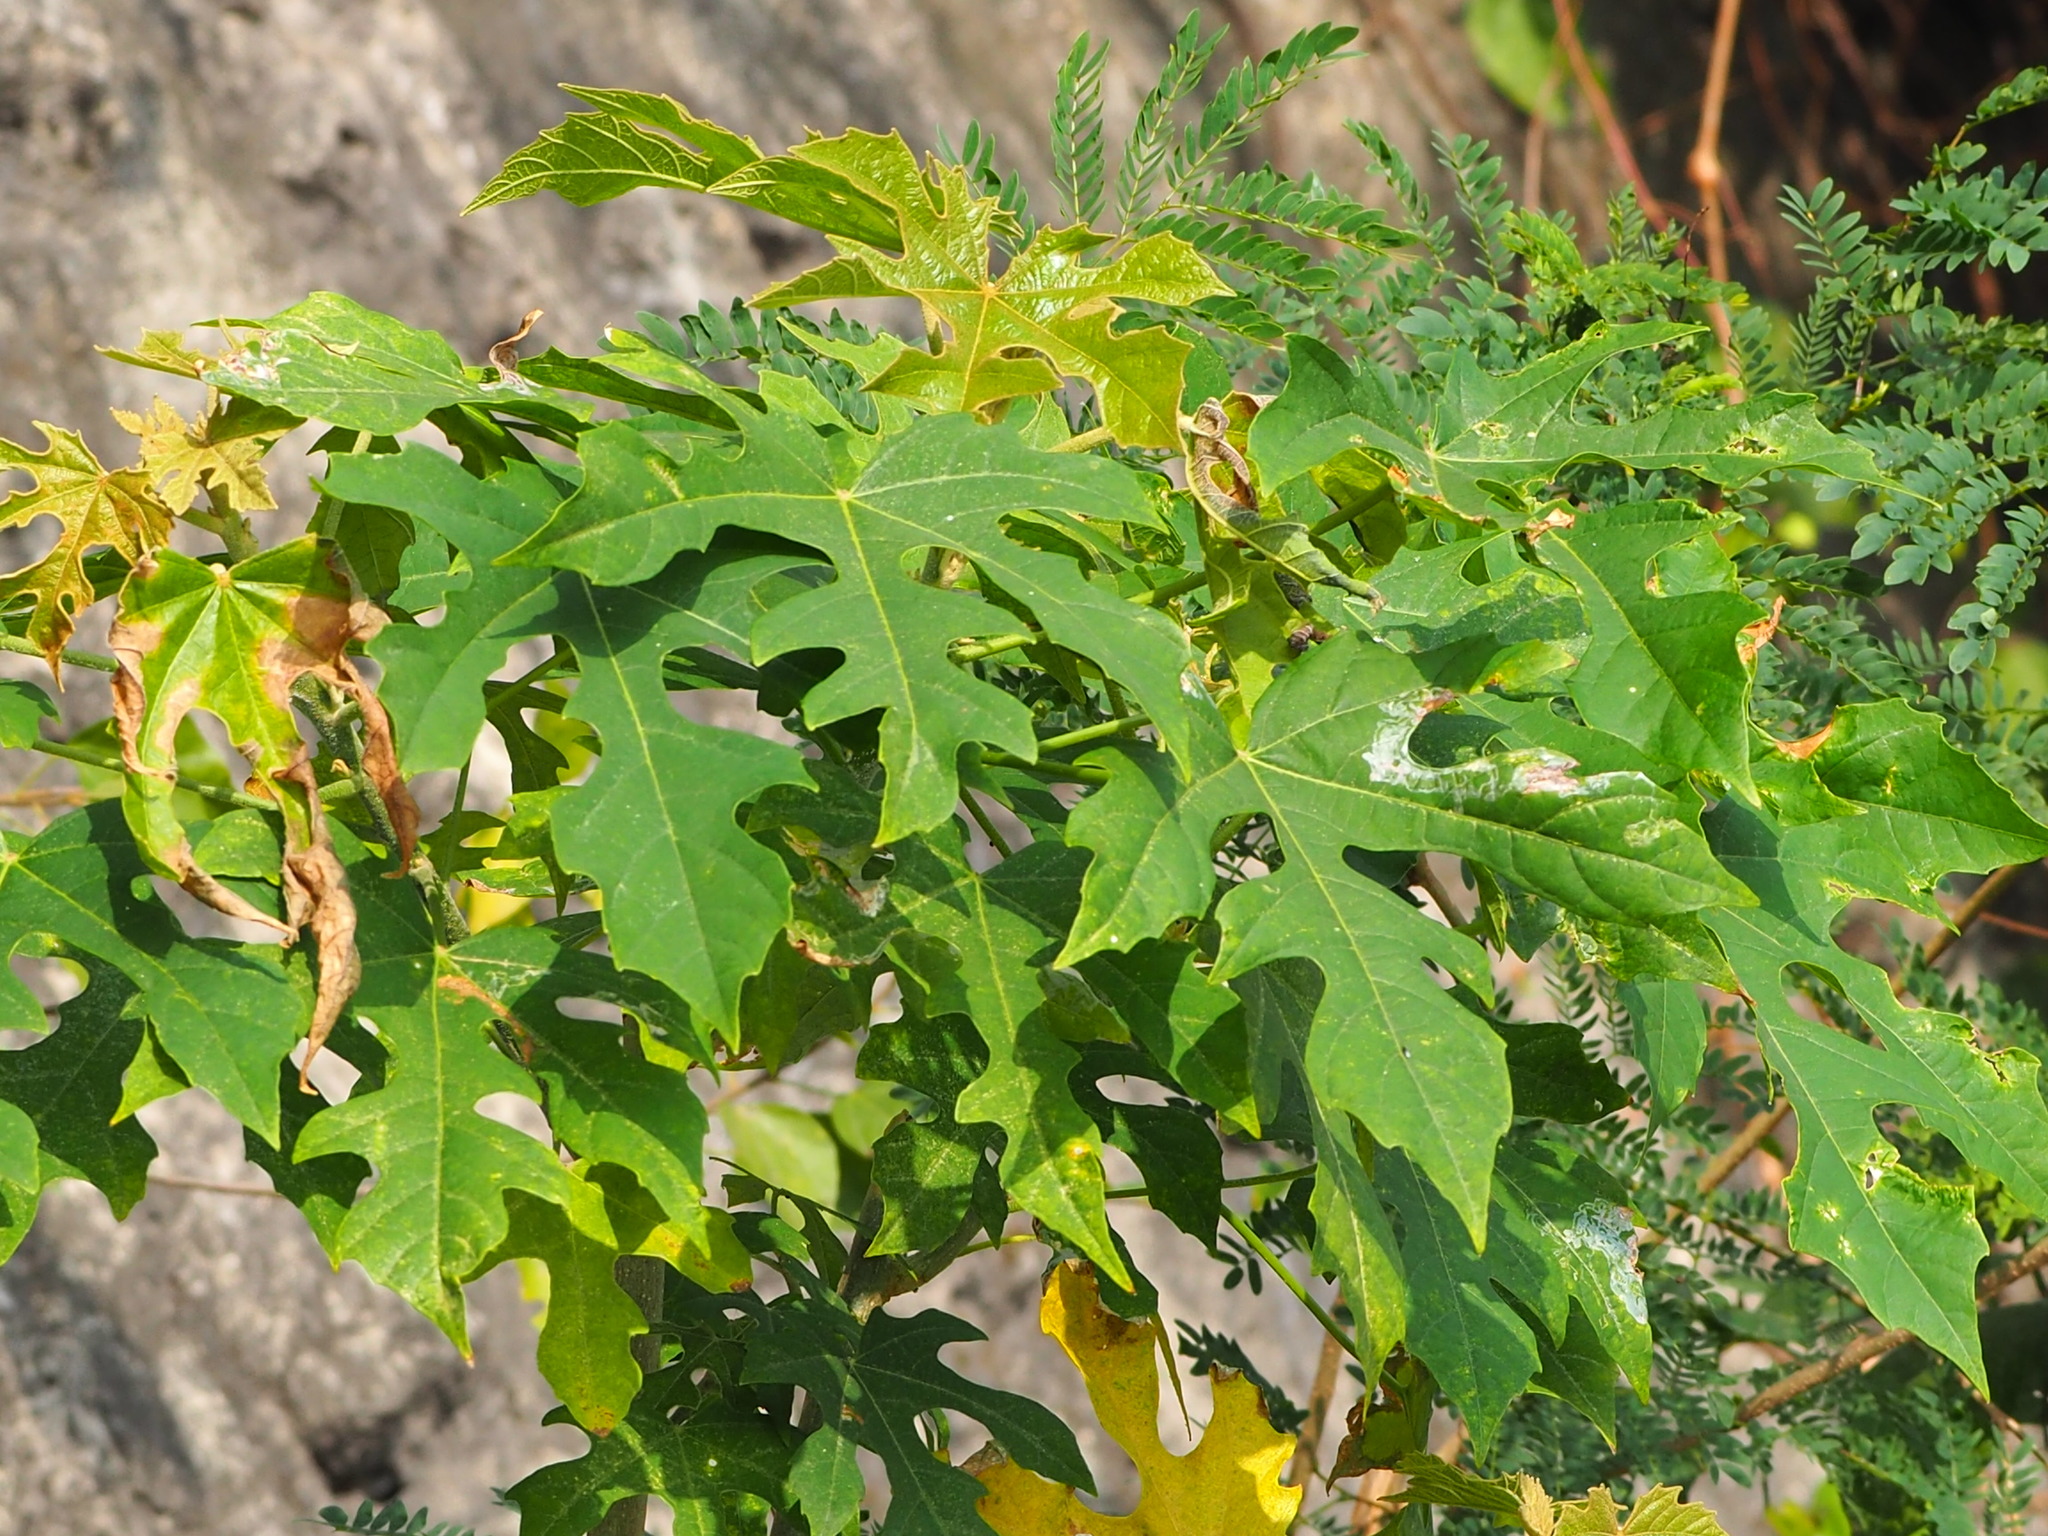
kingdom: Plantae
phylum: Tracheophyta
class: Magnoliopsida
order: Malpighiales
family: Euphorbiaceae
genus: Melanolepis
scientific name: Melanolepis multiglandulosa
